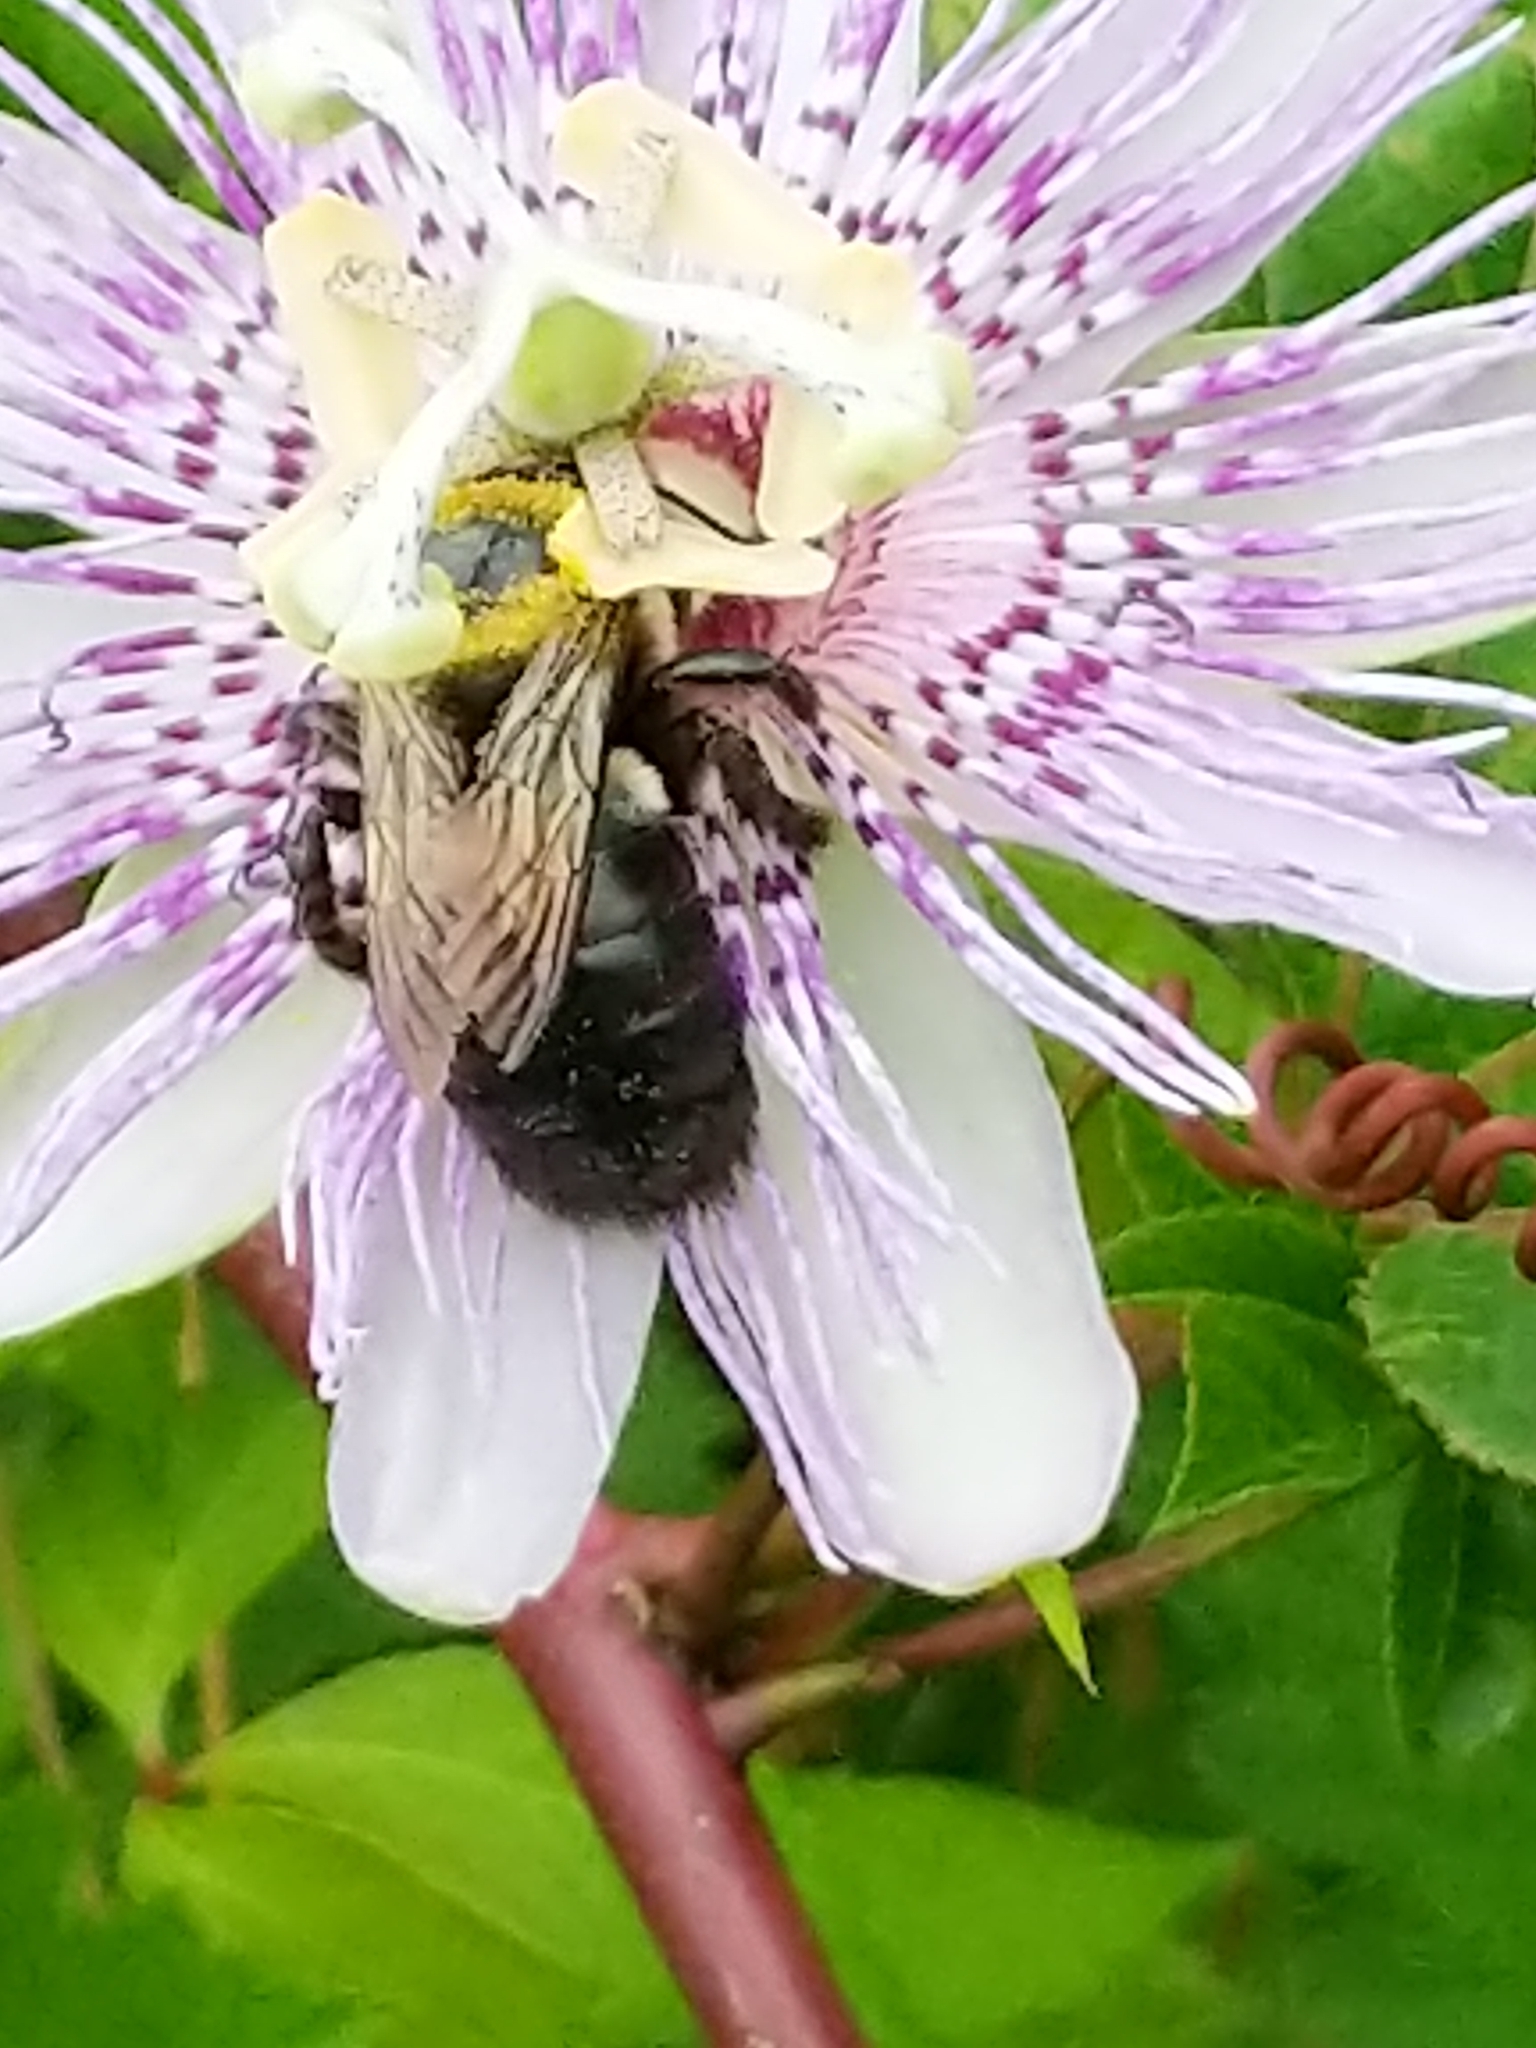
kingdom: Animalia
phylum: Arthropoda
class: Insecta
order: Hymenoptera
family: Apidae
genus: Xylocopa
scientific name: Xylocopa virginica
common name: Carpenter bee
